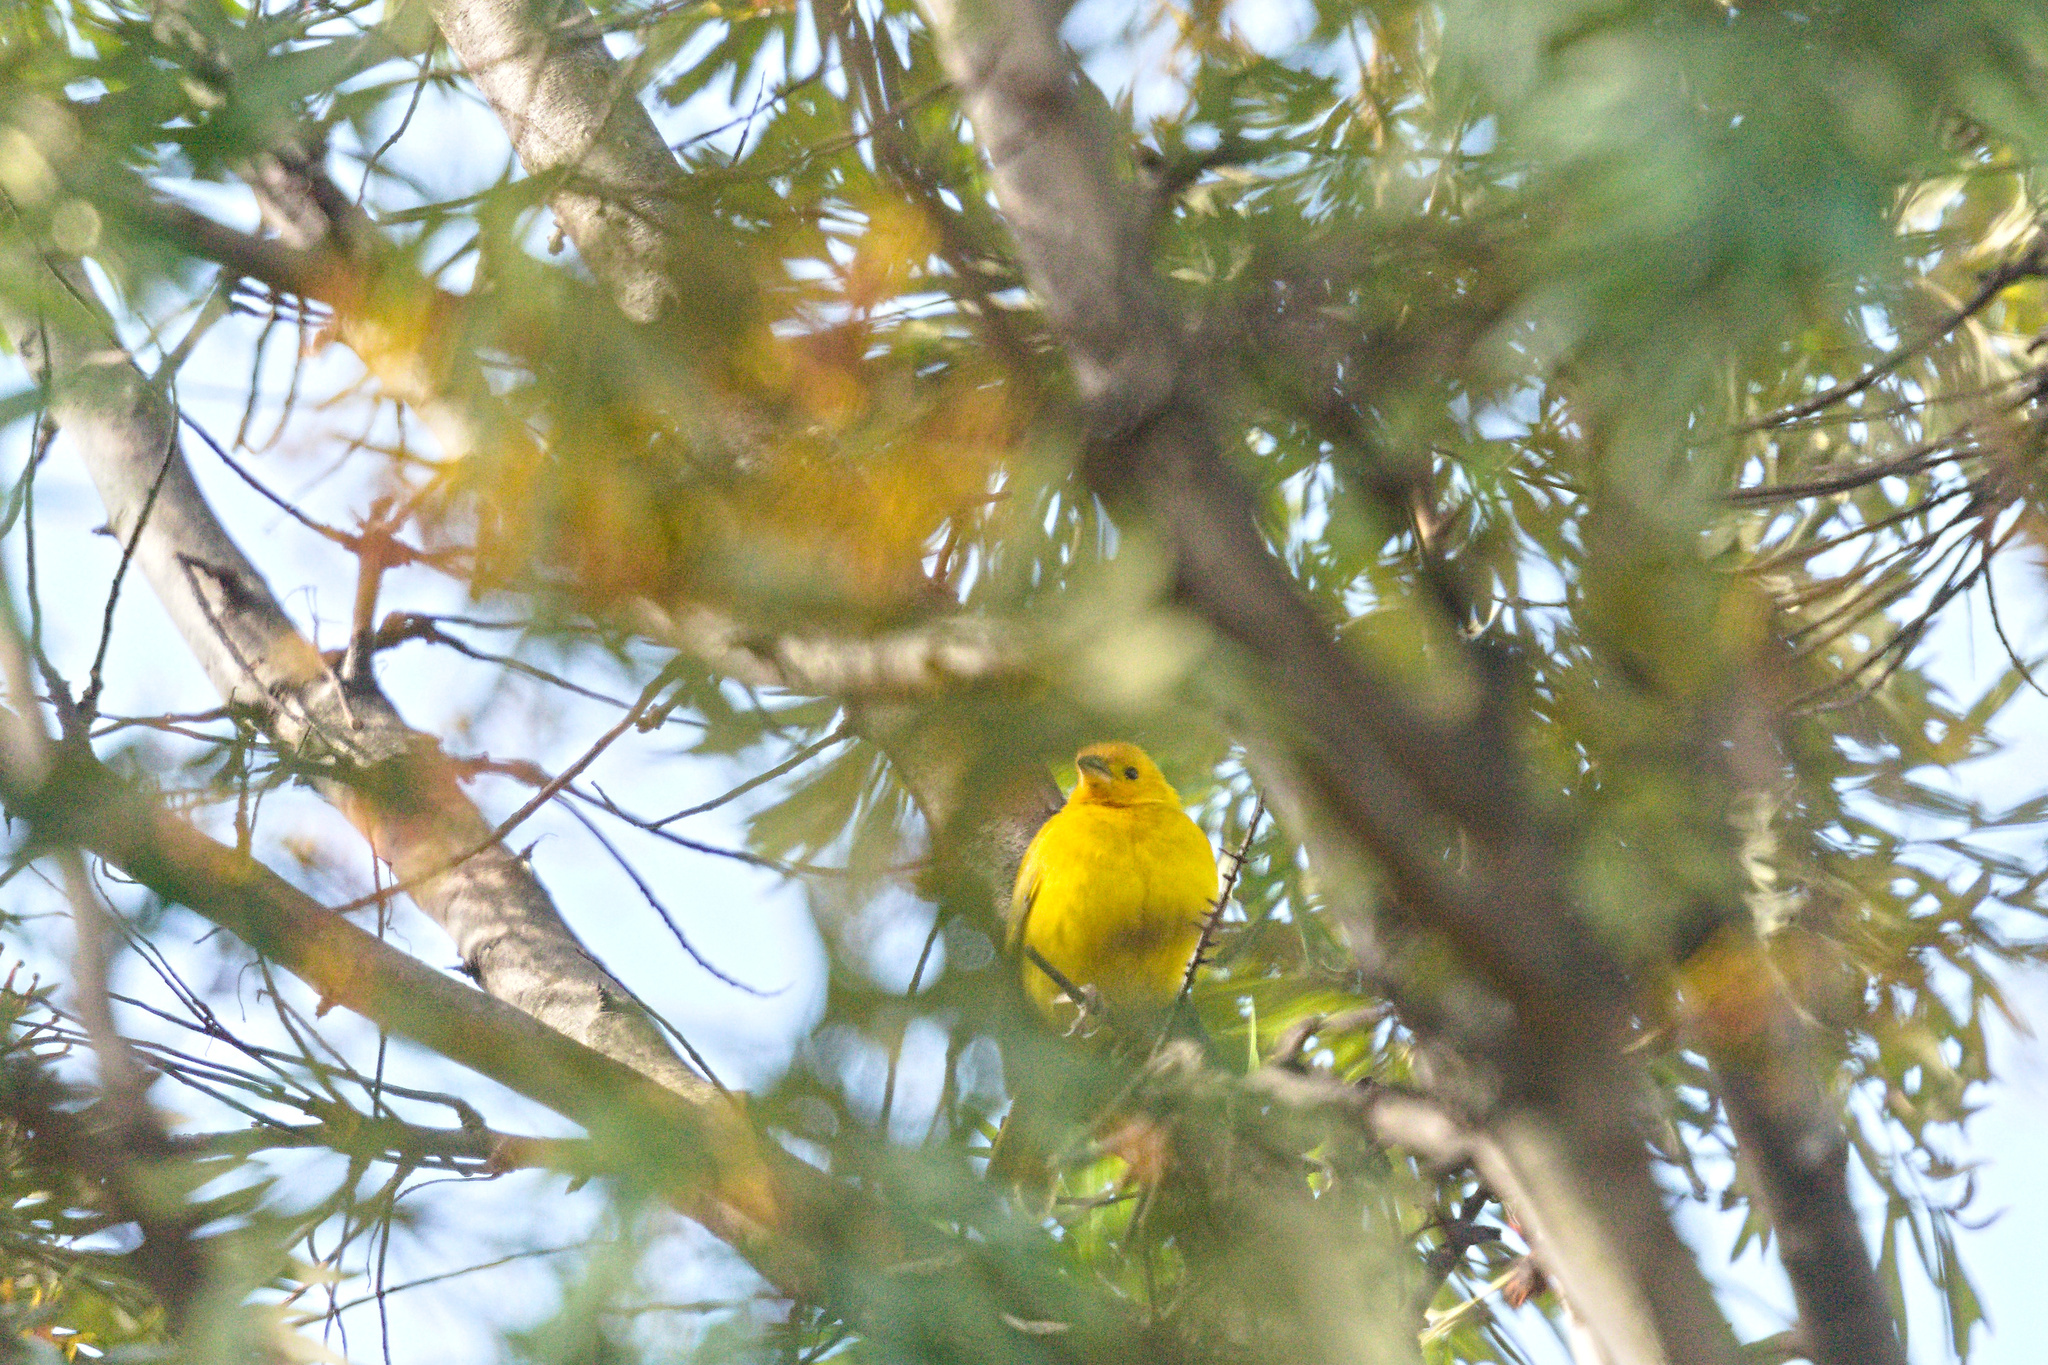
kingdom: Animalia
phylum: Chordata
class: Aves
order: Passeriformes
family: Thraupidae
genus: Sicalis
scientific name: Sicalis flaveola
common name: Saffron finch
